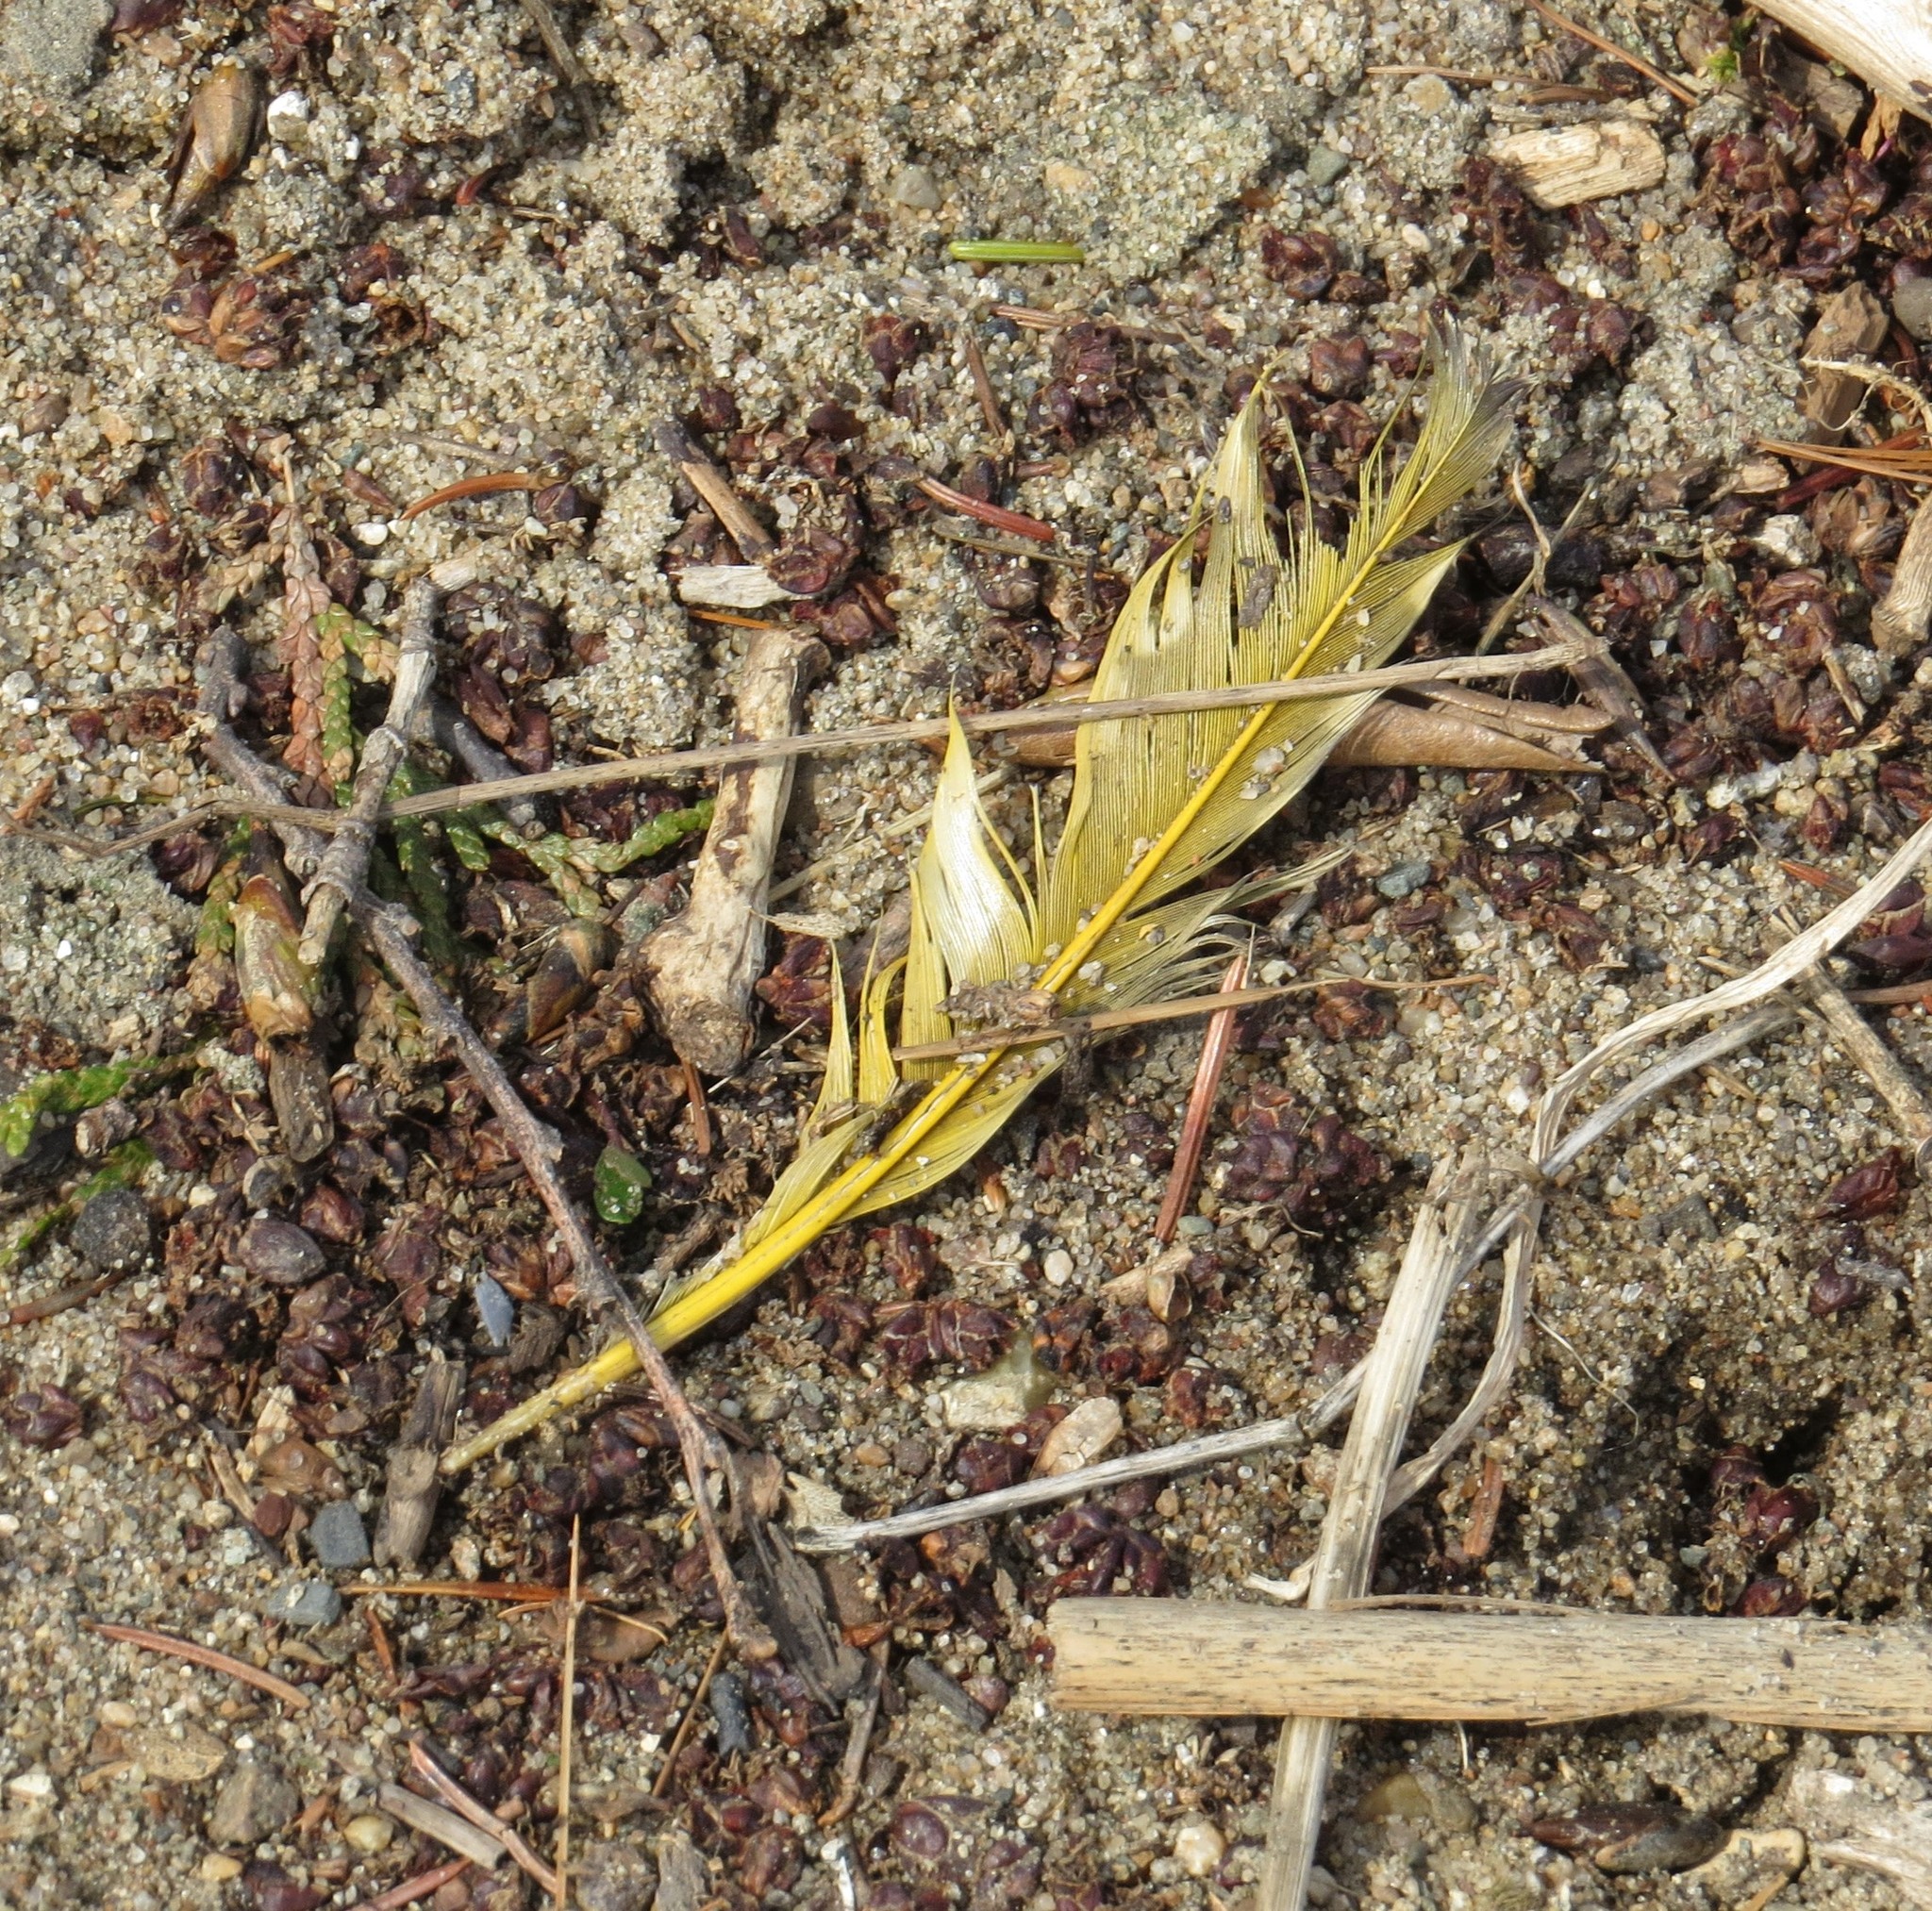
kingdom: Animalia
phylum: Chordata
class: Aves
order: Piciformes
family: Picidae
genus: Colaptes
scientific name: Colaptes auratus
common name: Northern flicker
